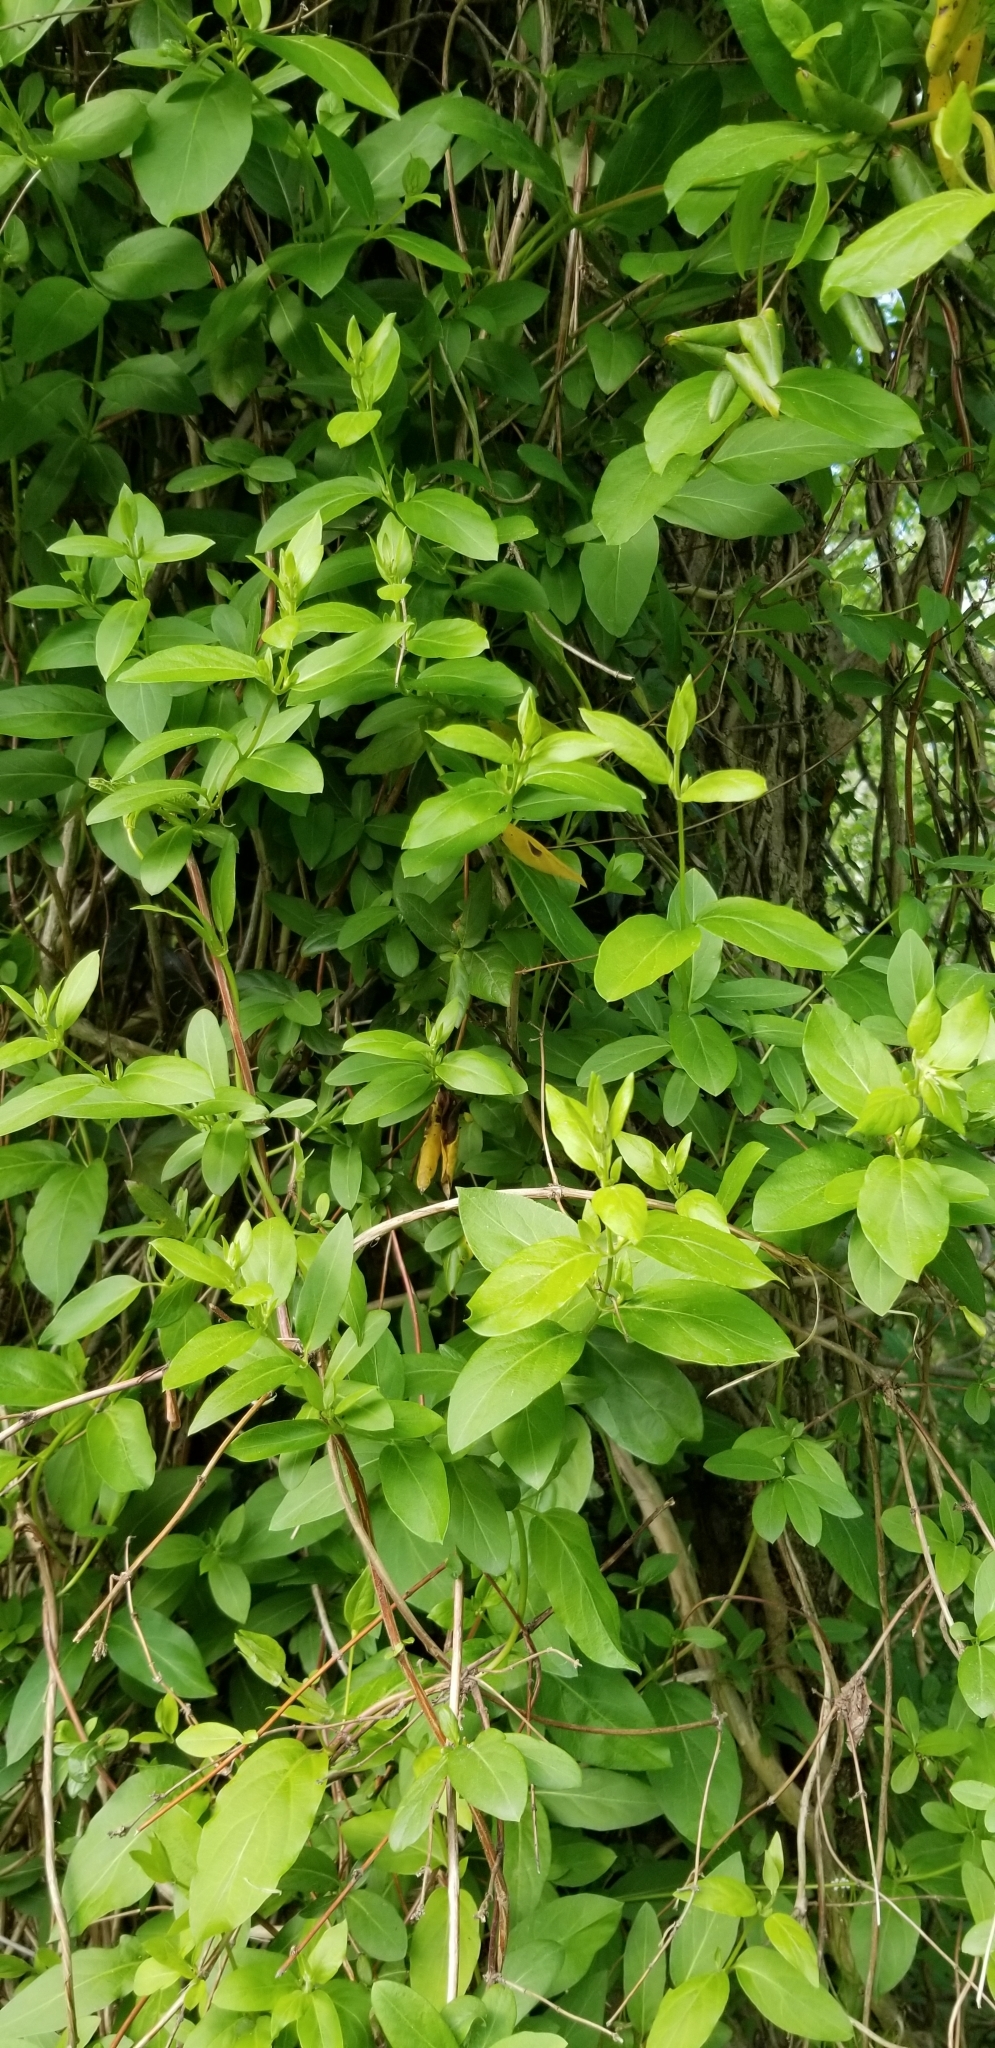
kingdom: Plantae
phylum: Tracheophyta
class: Magnoliopsida
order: Dipsacales
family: Caprifoliaceae
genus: Lonicera
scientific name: Lonicera japonica
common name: Japanese honeysuckle
